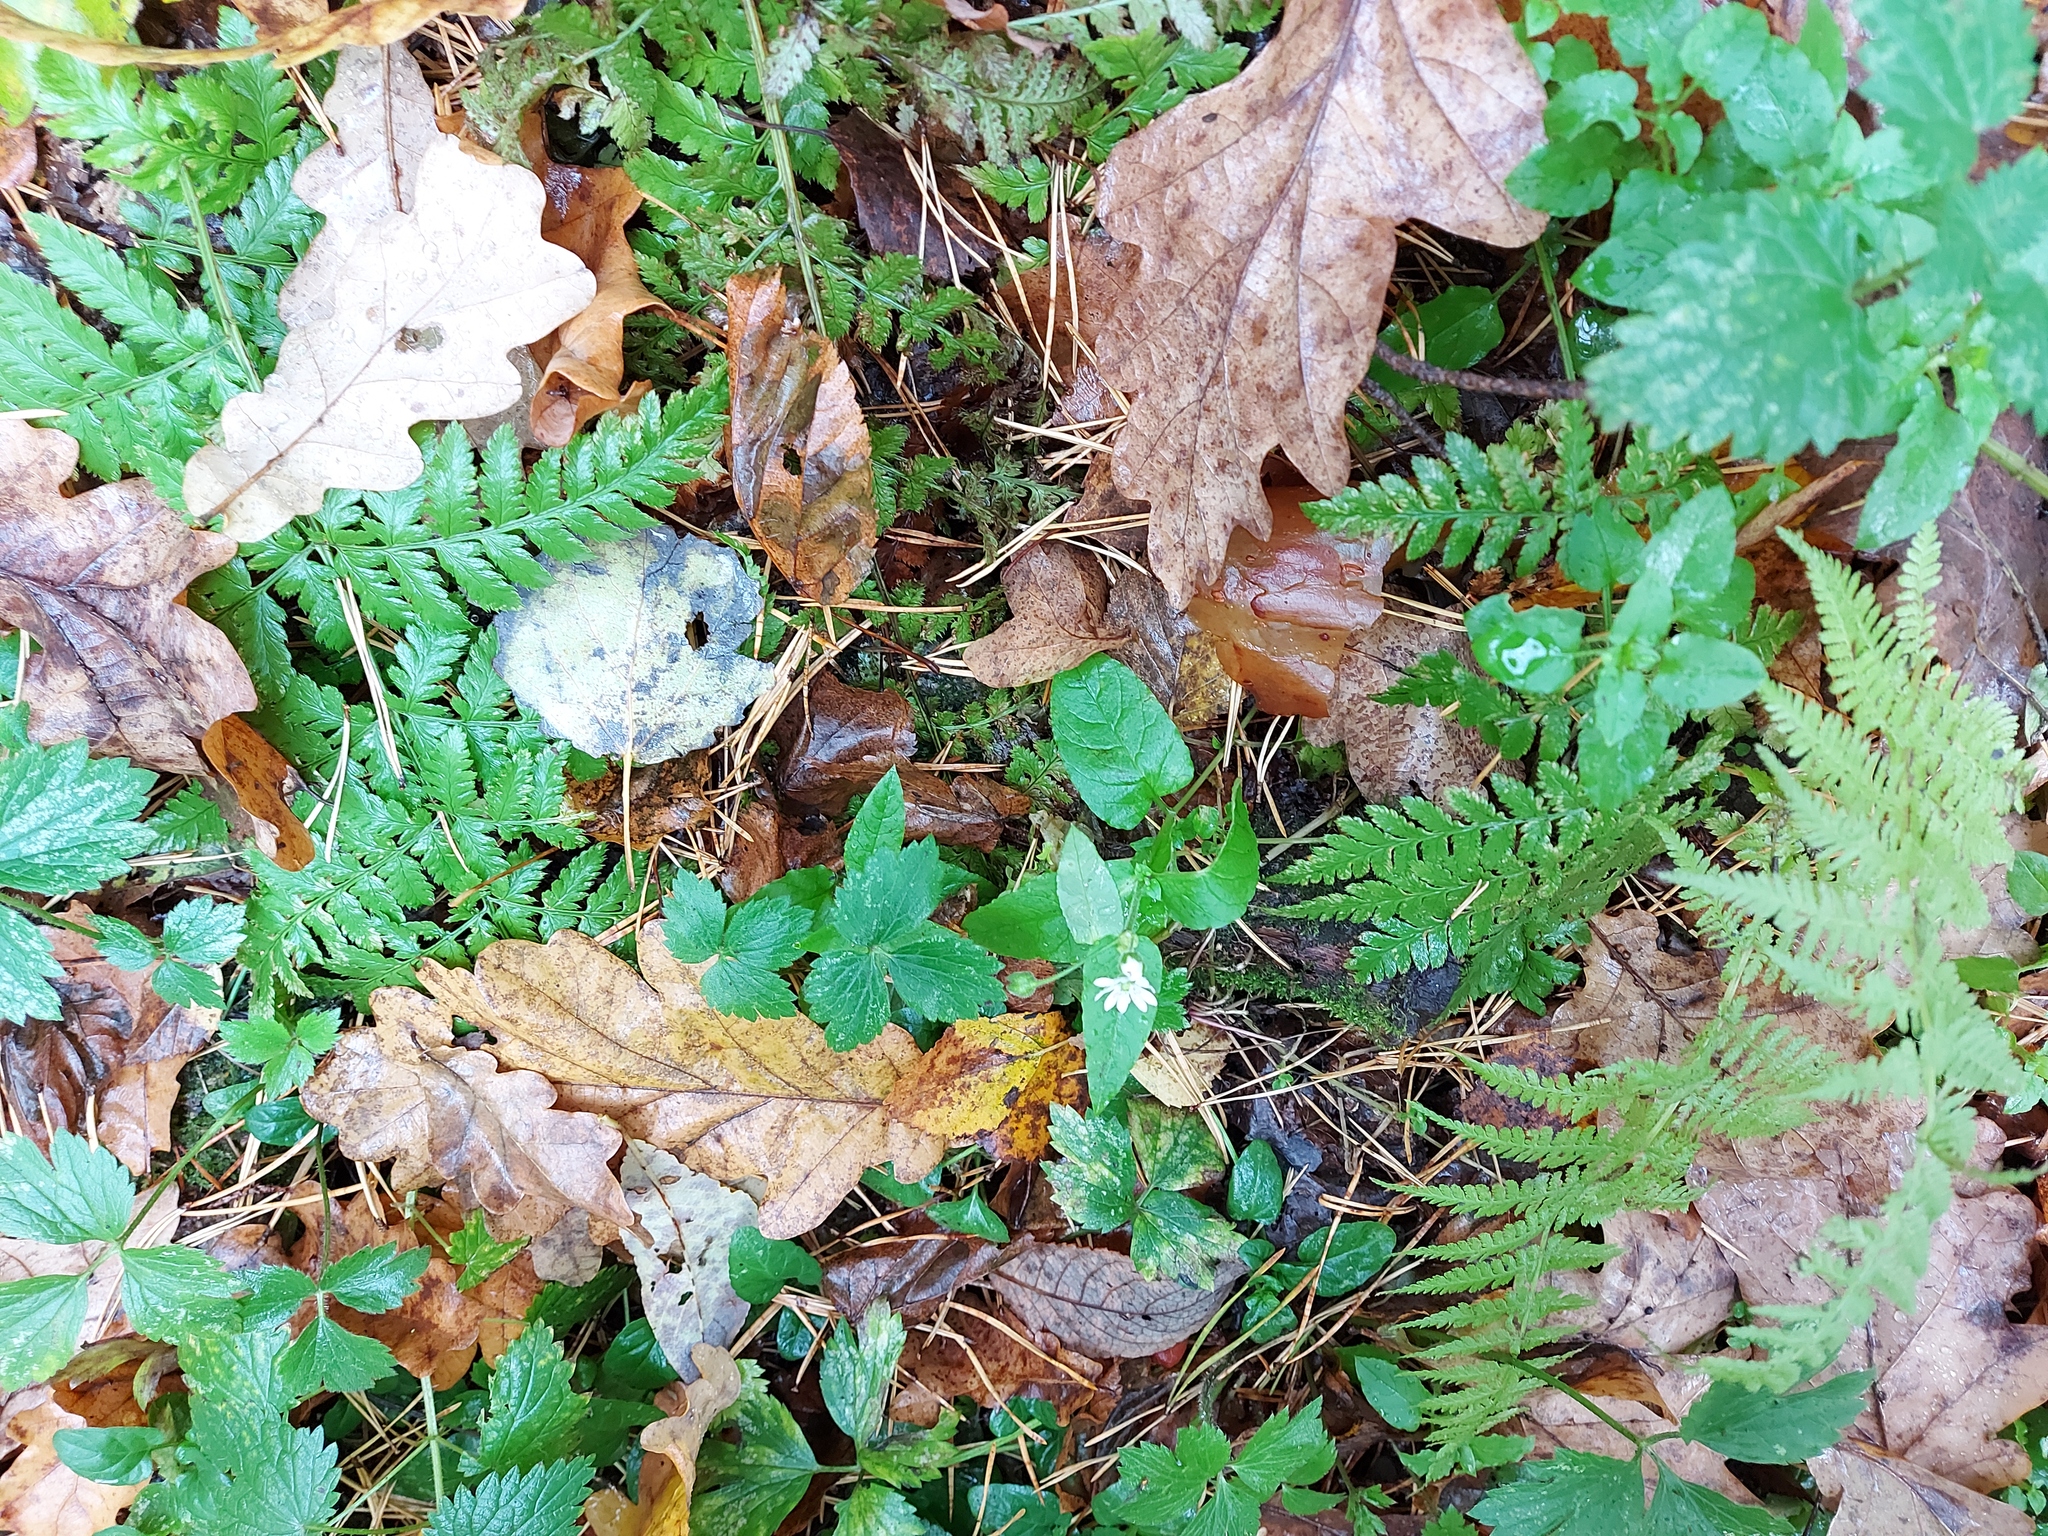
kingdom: Plantae
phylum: Tracheophyta
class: Magnoliopsida
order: Caryophyllales
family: Caryophyllaceae
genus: Stellaria
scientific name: Stellaria aquatica
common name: Water chickweed
